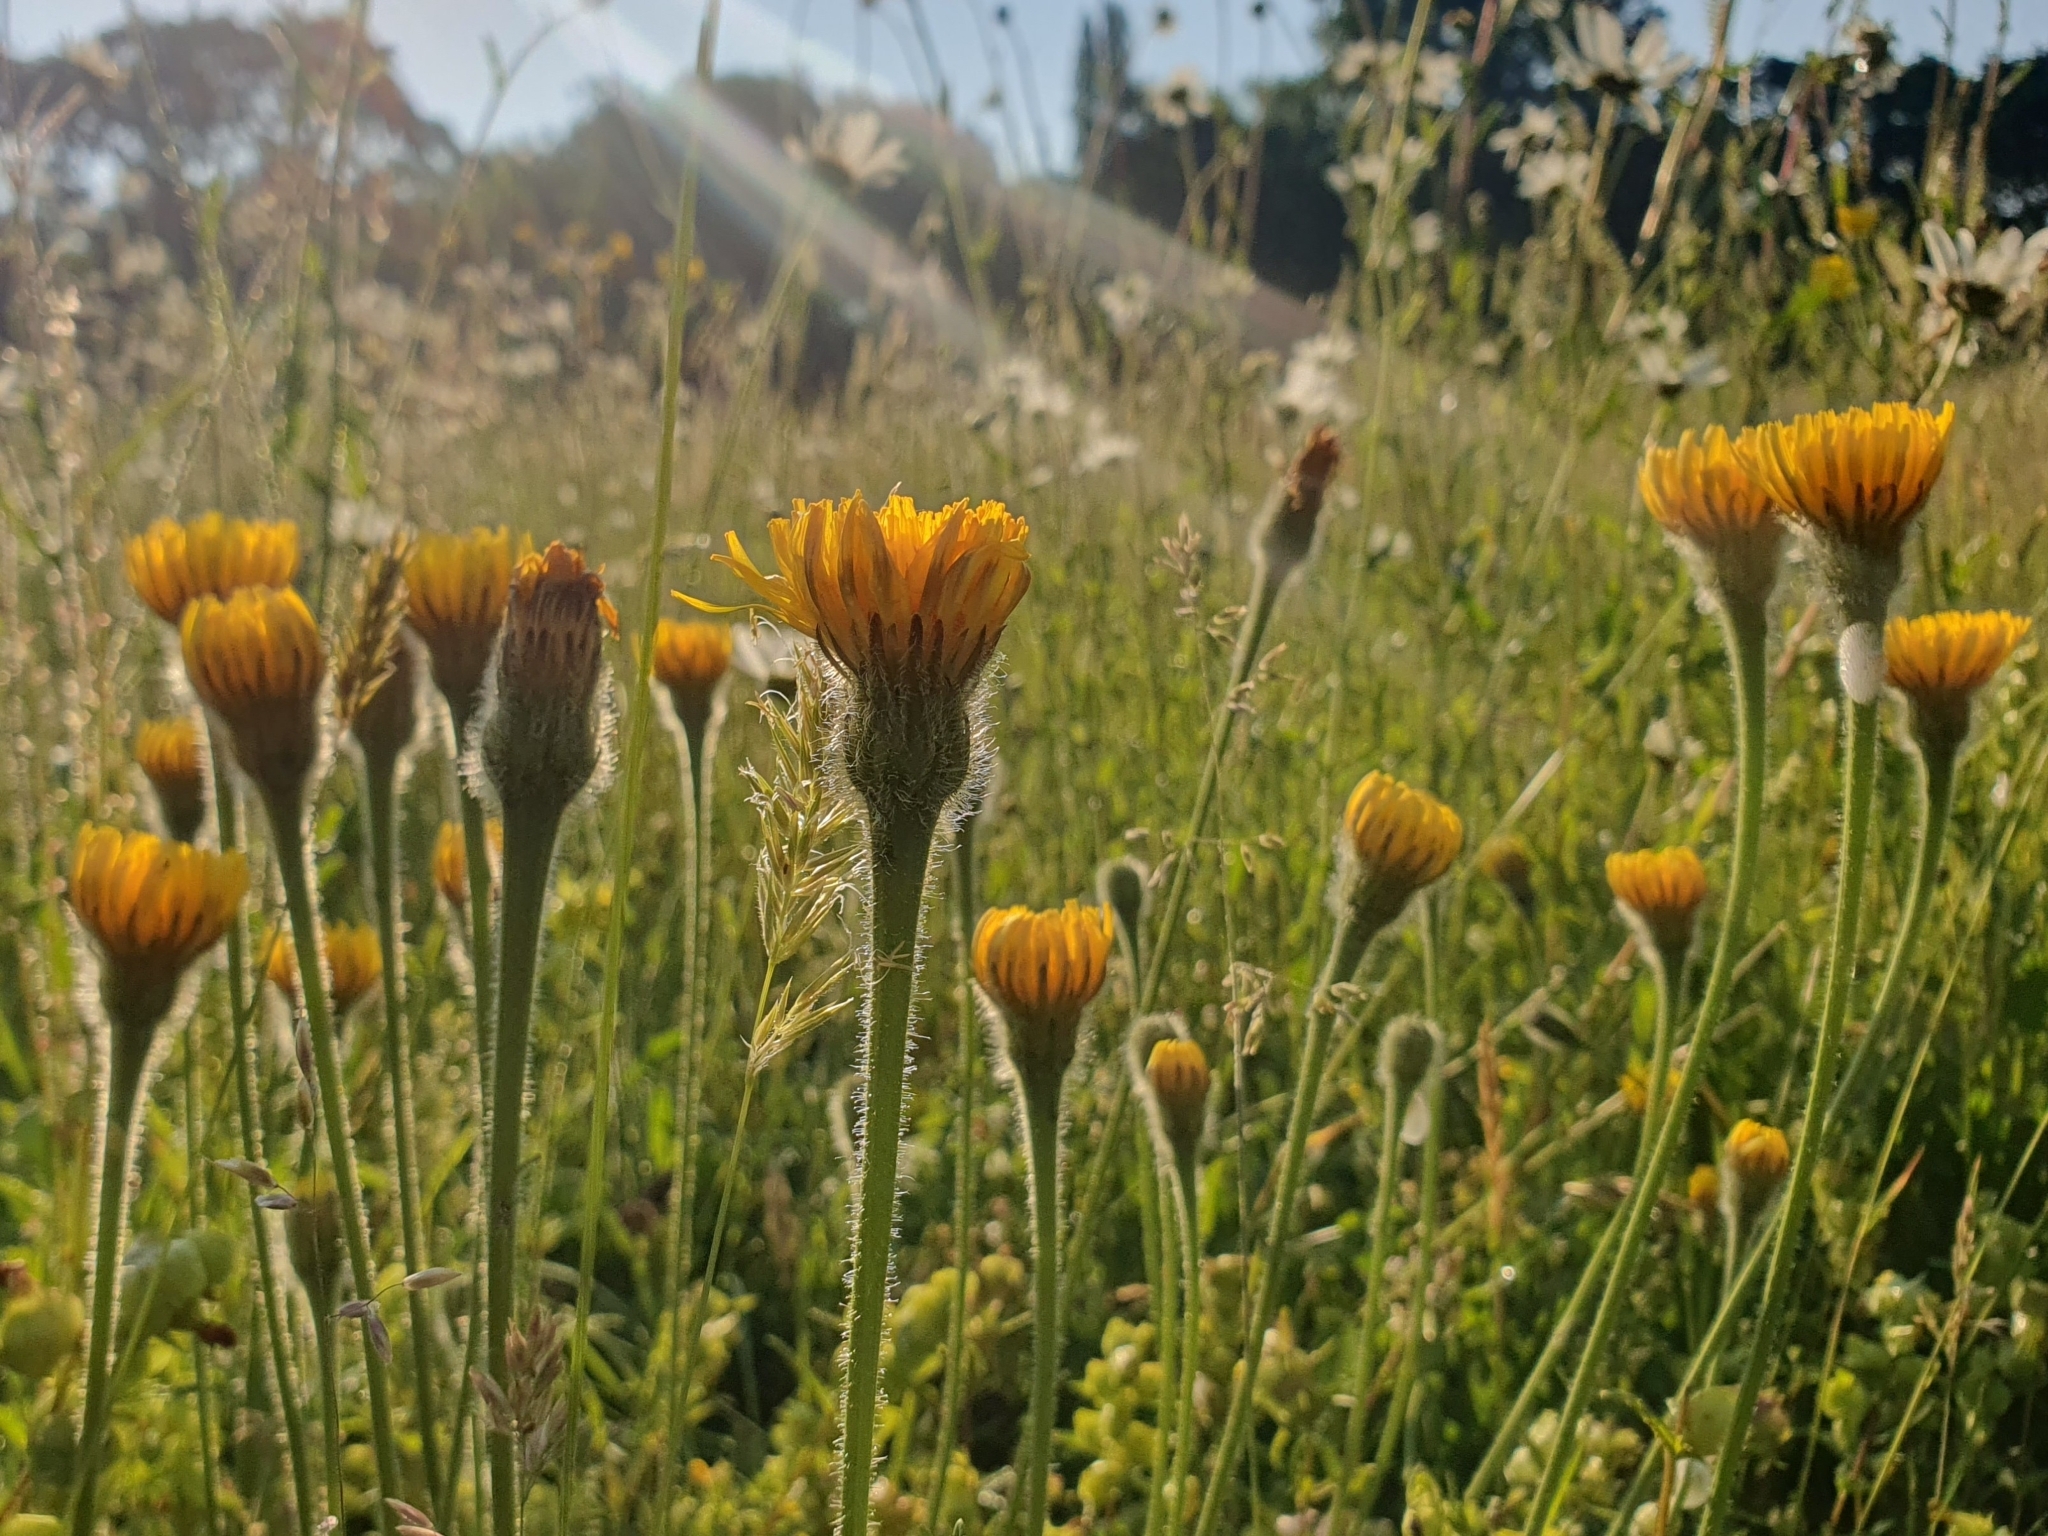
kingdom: Plantae
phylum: Tracheophyta
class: Magnoliopsida
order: Asterales
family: Asteraceae
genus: Leontodon
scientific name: Leontodon hispidus
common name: Rough hawkbit
